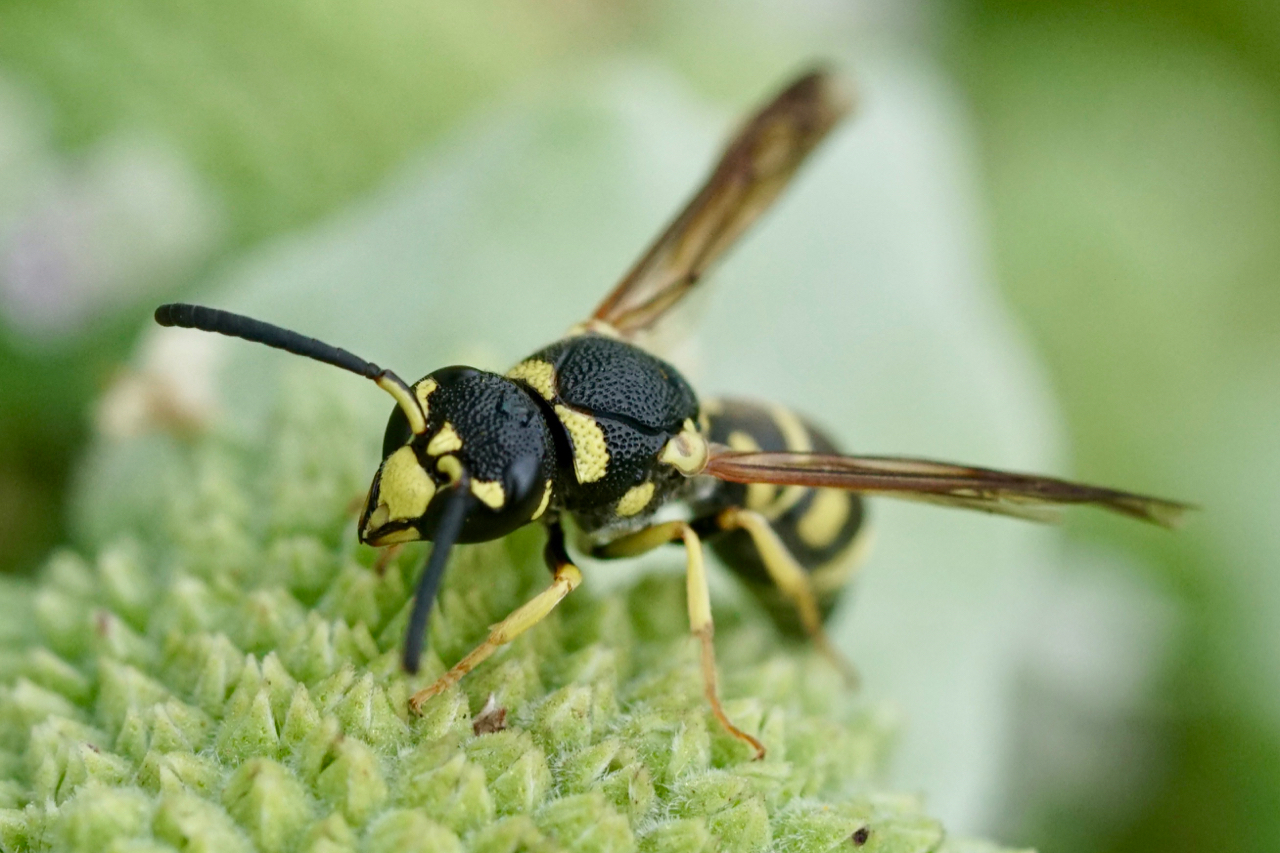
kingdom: Animalia
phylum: Arthropoda
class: Insecta
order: Hymenoptera
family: Eumenidae
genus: Parancistrocerus
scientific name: Parancistrocerus leionotus
